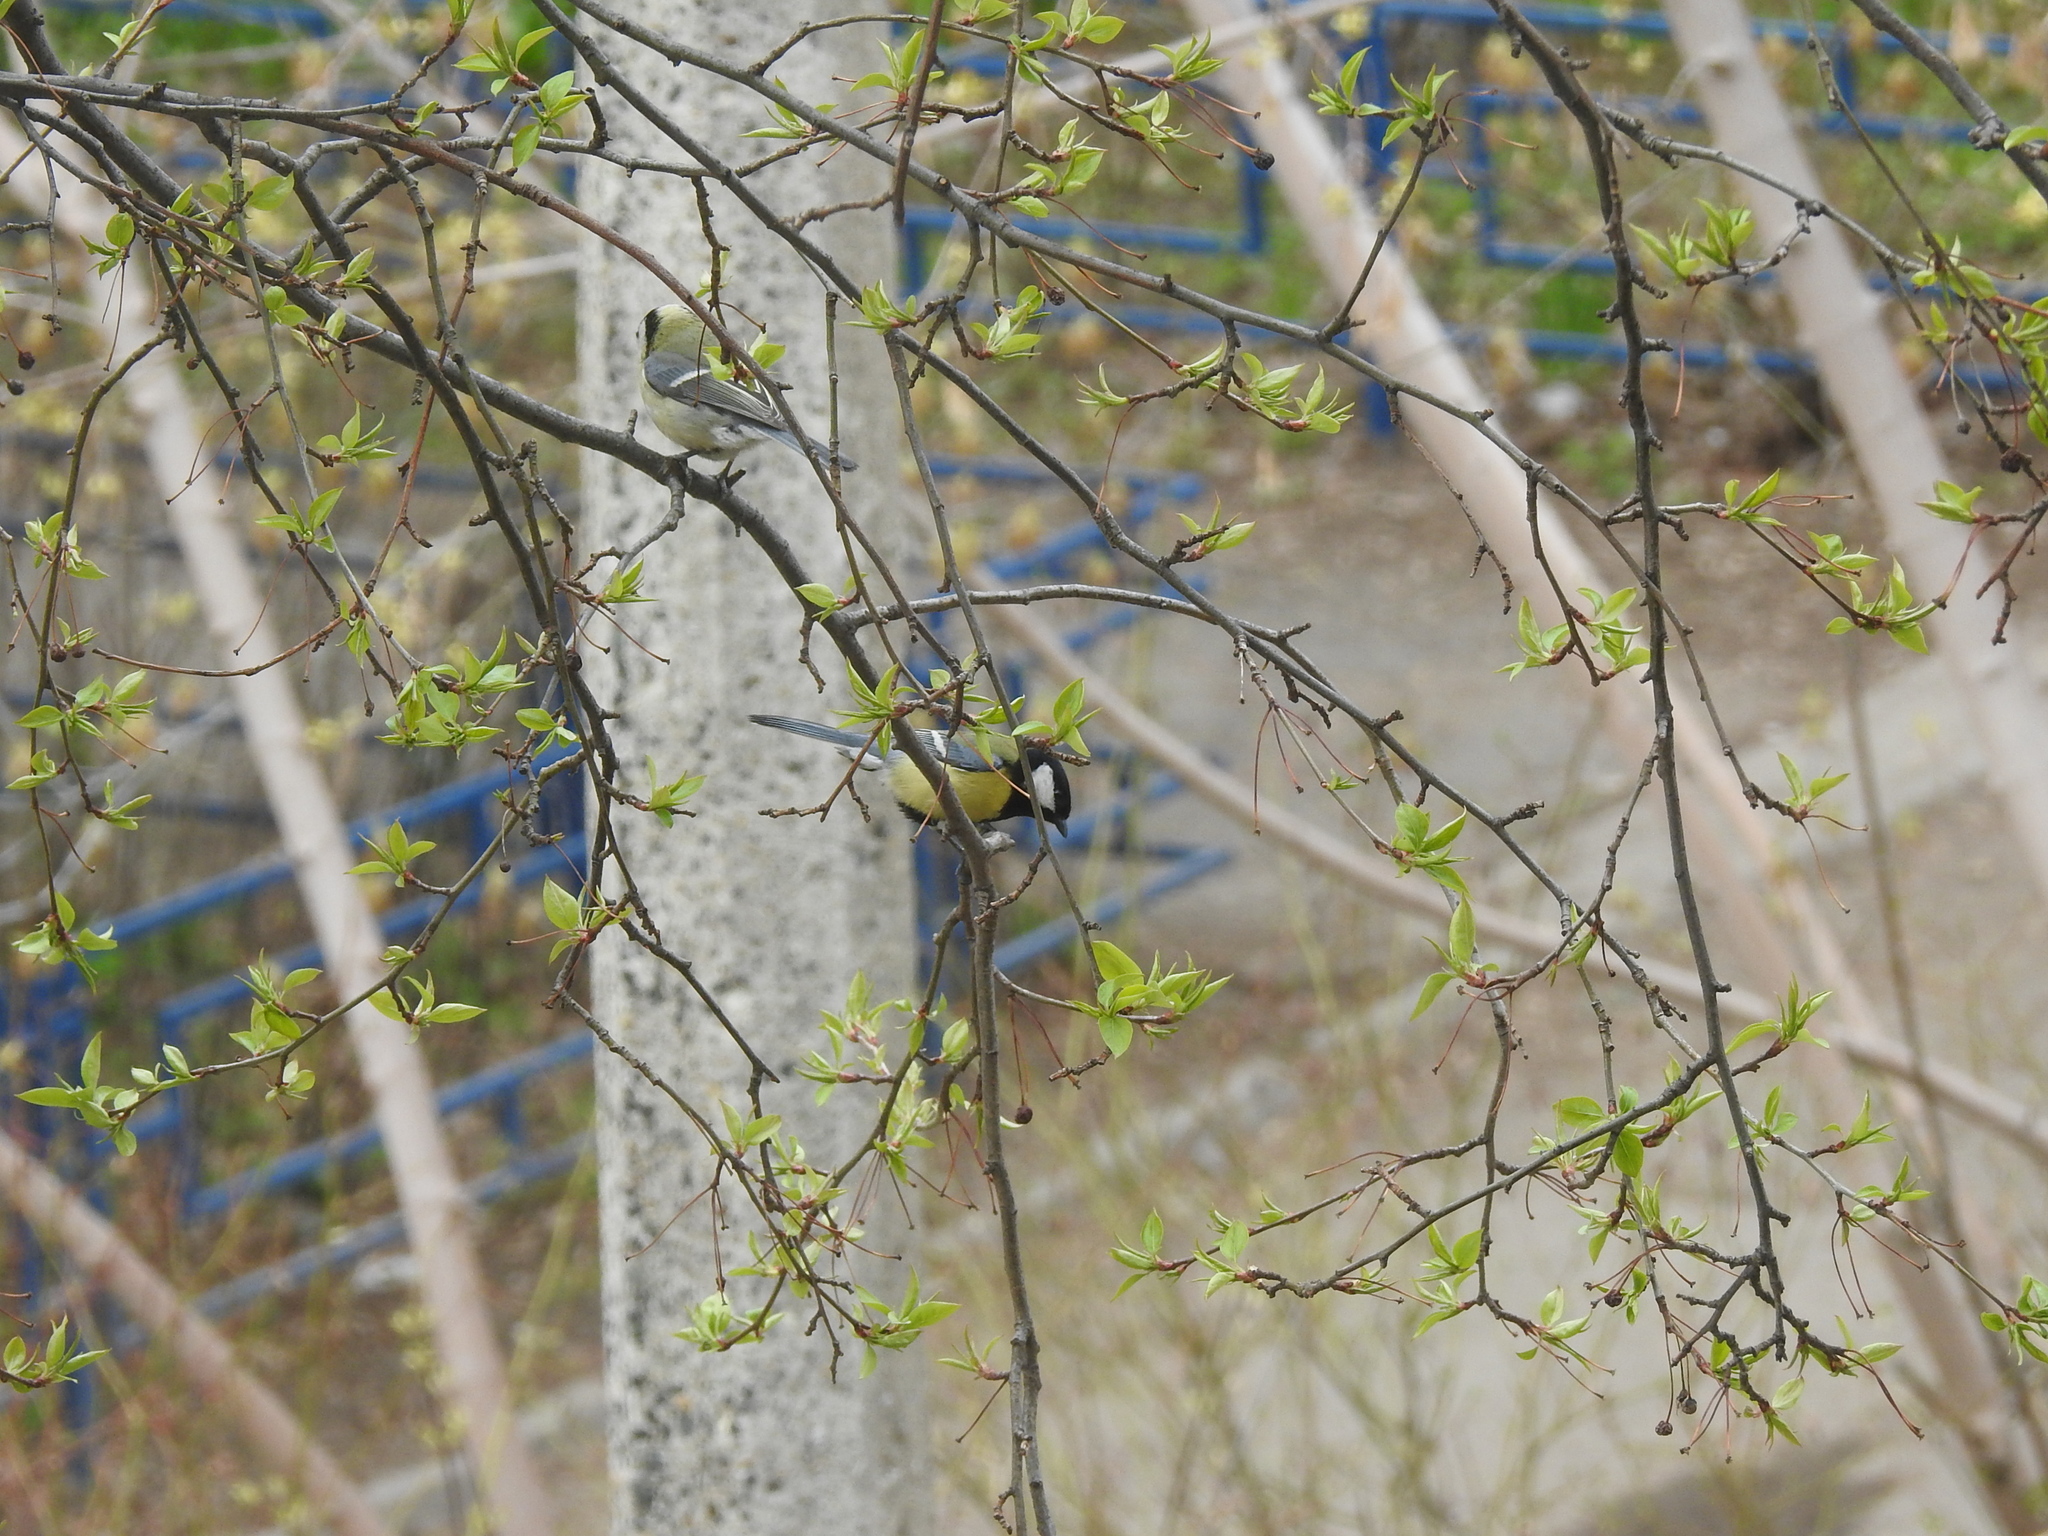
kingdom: Animalia
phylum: Chordata
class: Aves
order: Passeriformes
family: Paridae
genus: Parus
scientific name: Parus major
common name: Great tit
